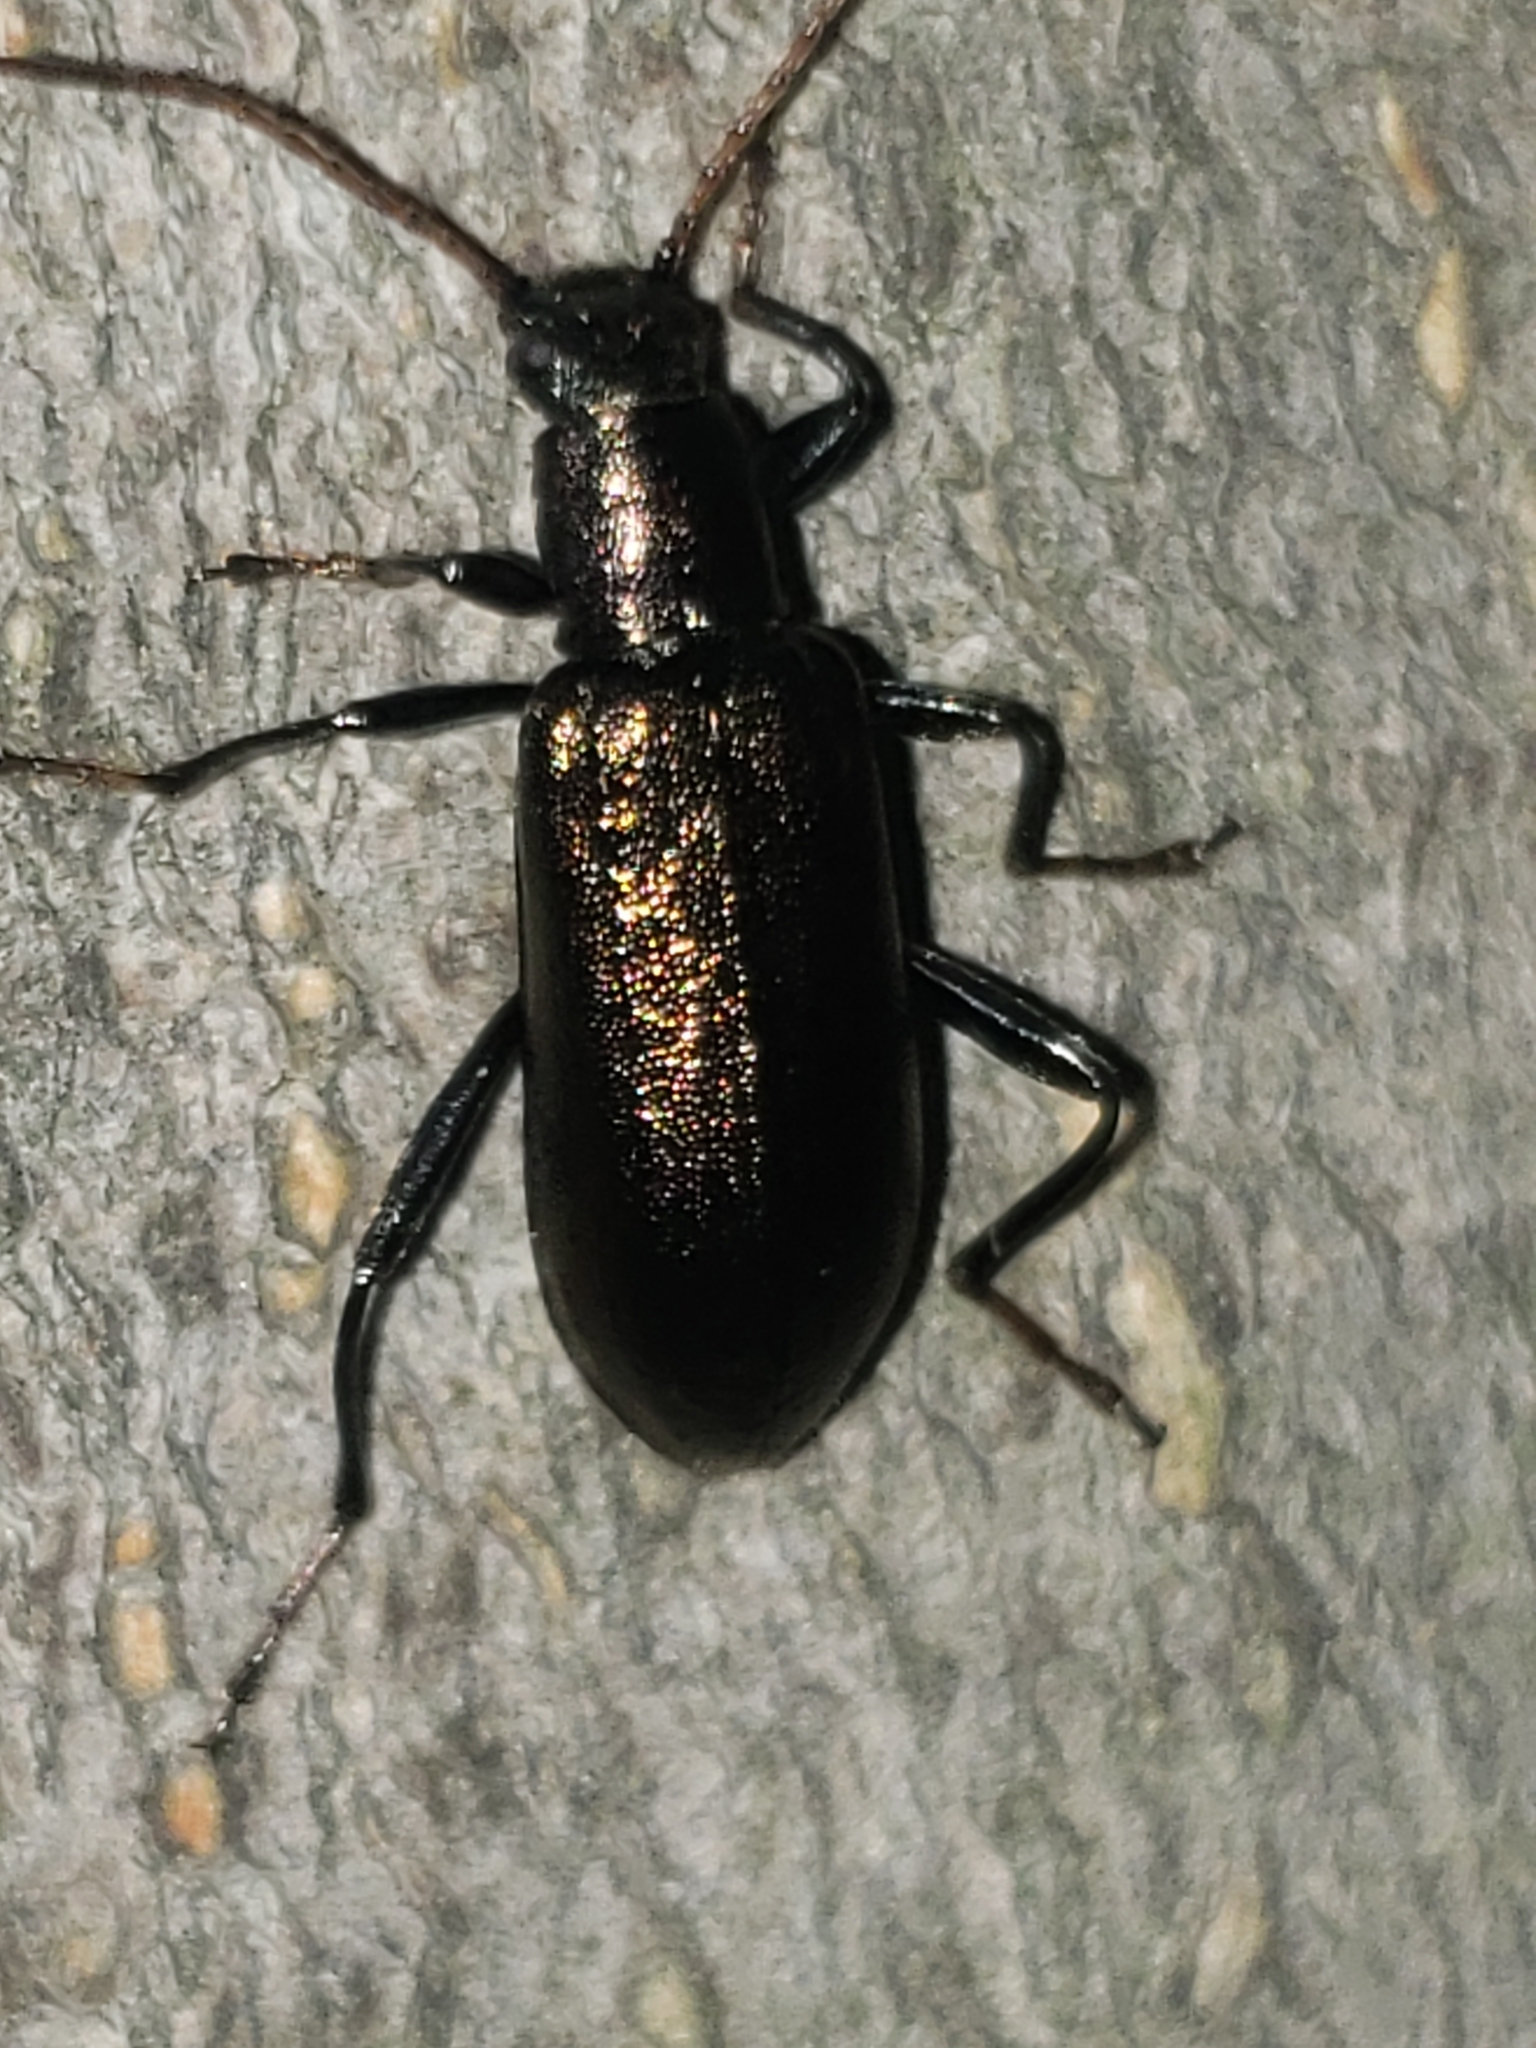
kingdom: Animalia
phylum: Arthropoda
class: Insecta
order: Coleoptera
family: Tenebrionidae
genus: Arthromacra
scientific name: Arthromacra aenea
